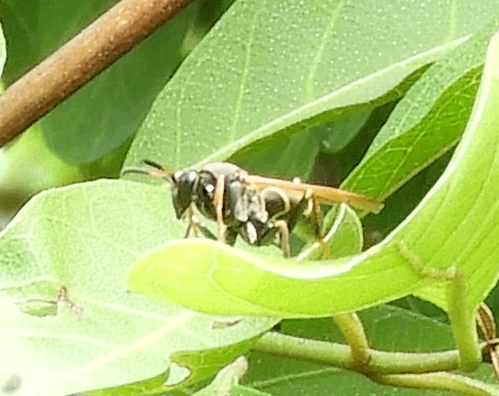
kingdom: Animalia
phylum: Arthropoda
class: Insecta
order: Hymenoptera
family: Eumenidae
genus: Polistes
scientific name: Polistes pacificus
